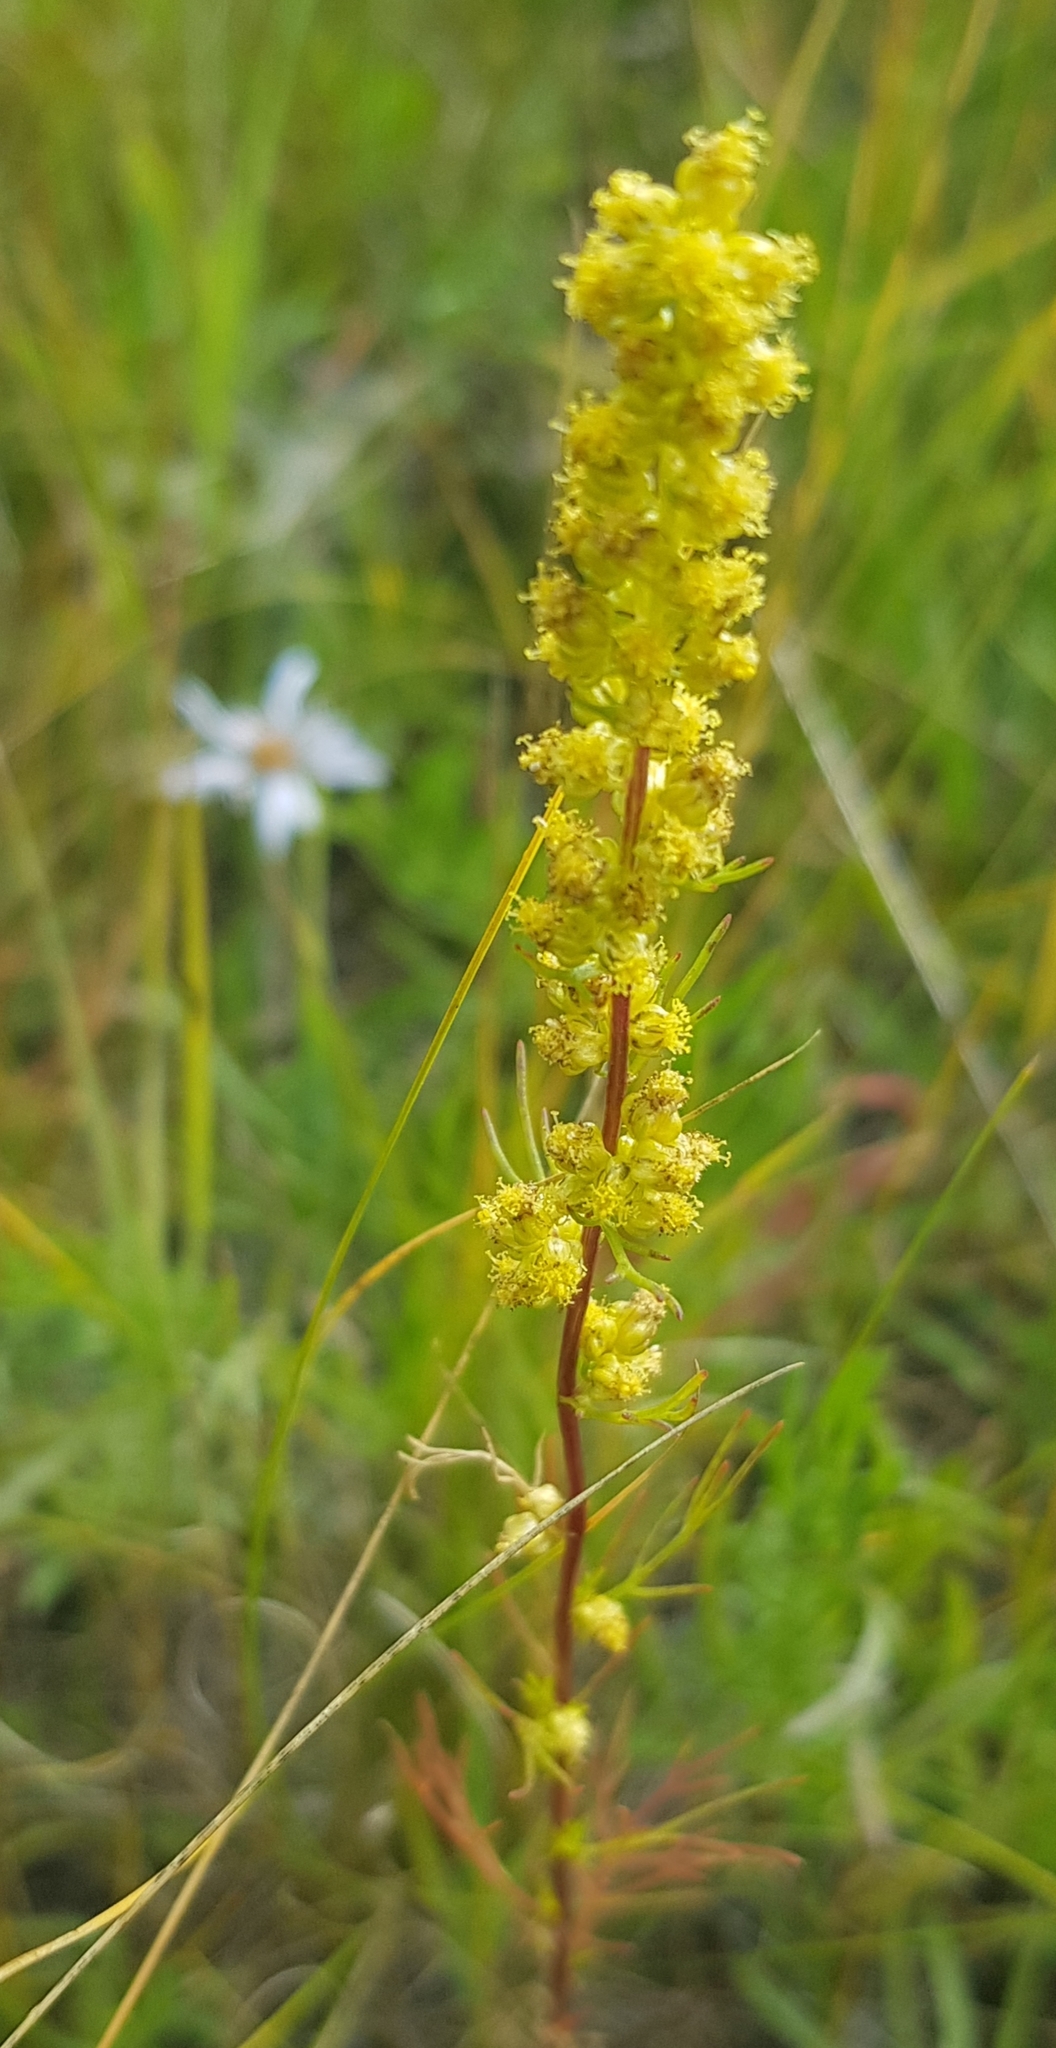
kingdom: Plantae
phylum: Tracheophyta
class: Magnoliopsida
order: Asterales
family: Asteraceae
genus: Artemisia
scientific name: Artemisia palustris
